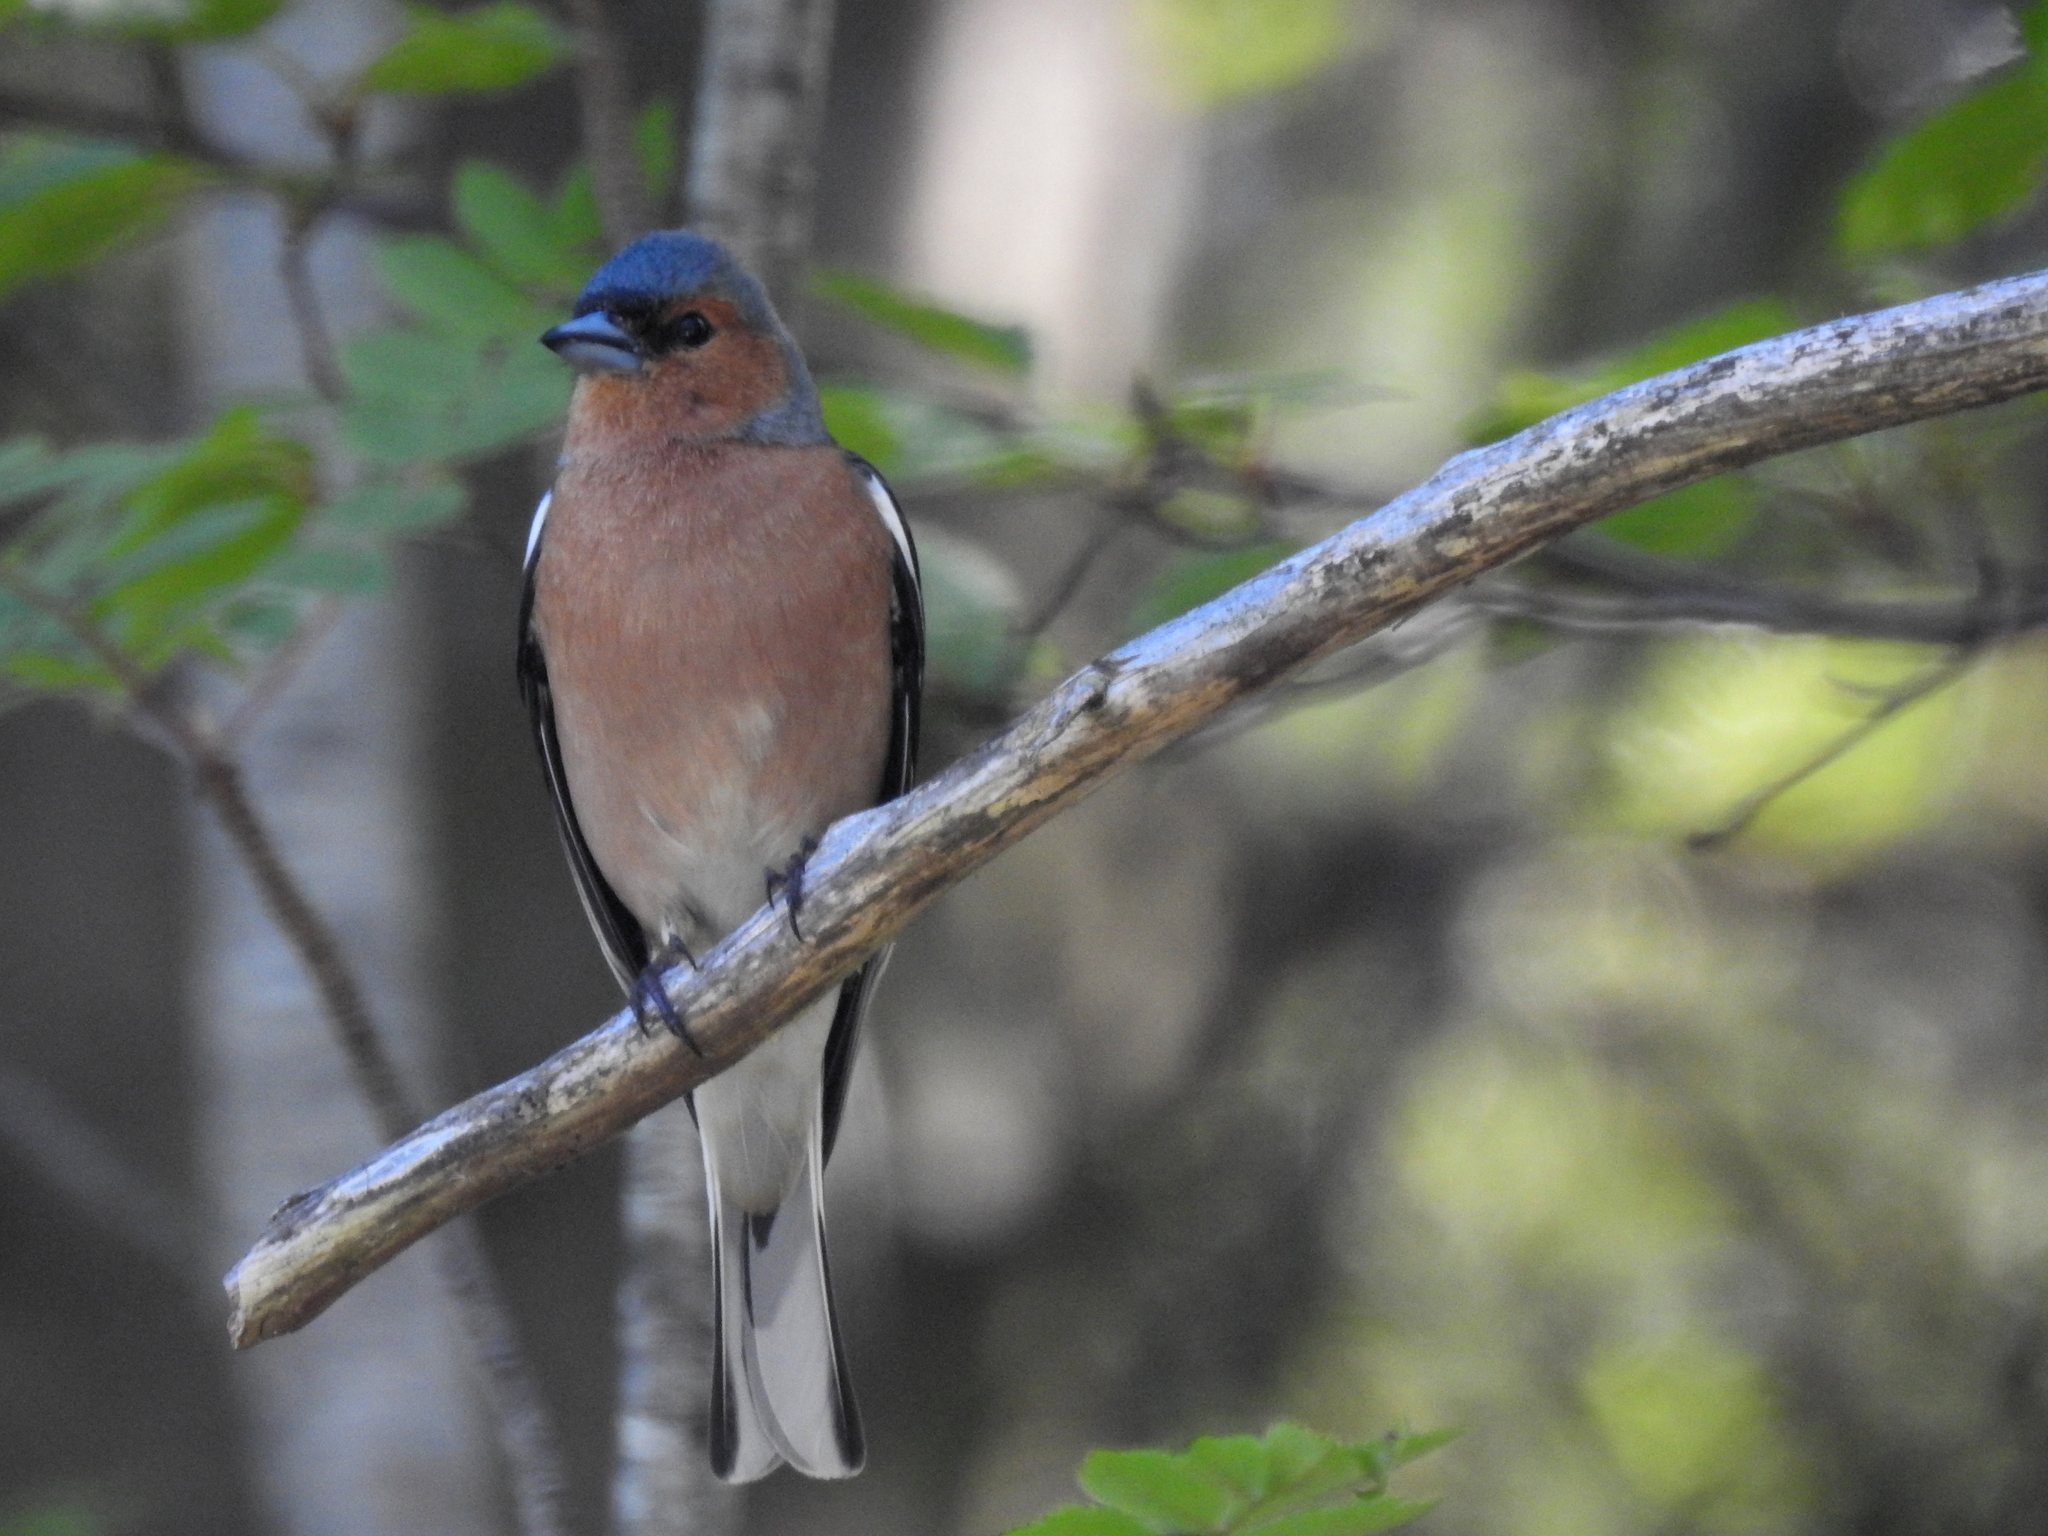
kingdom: Animalia
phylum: Chordata
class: Aves
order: Passeriformes
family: Fringillidae
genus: Fringilla
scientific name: Fringilla coelebs
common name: Common chaffinch
